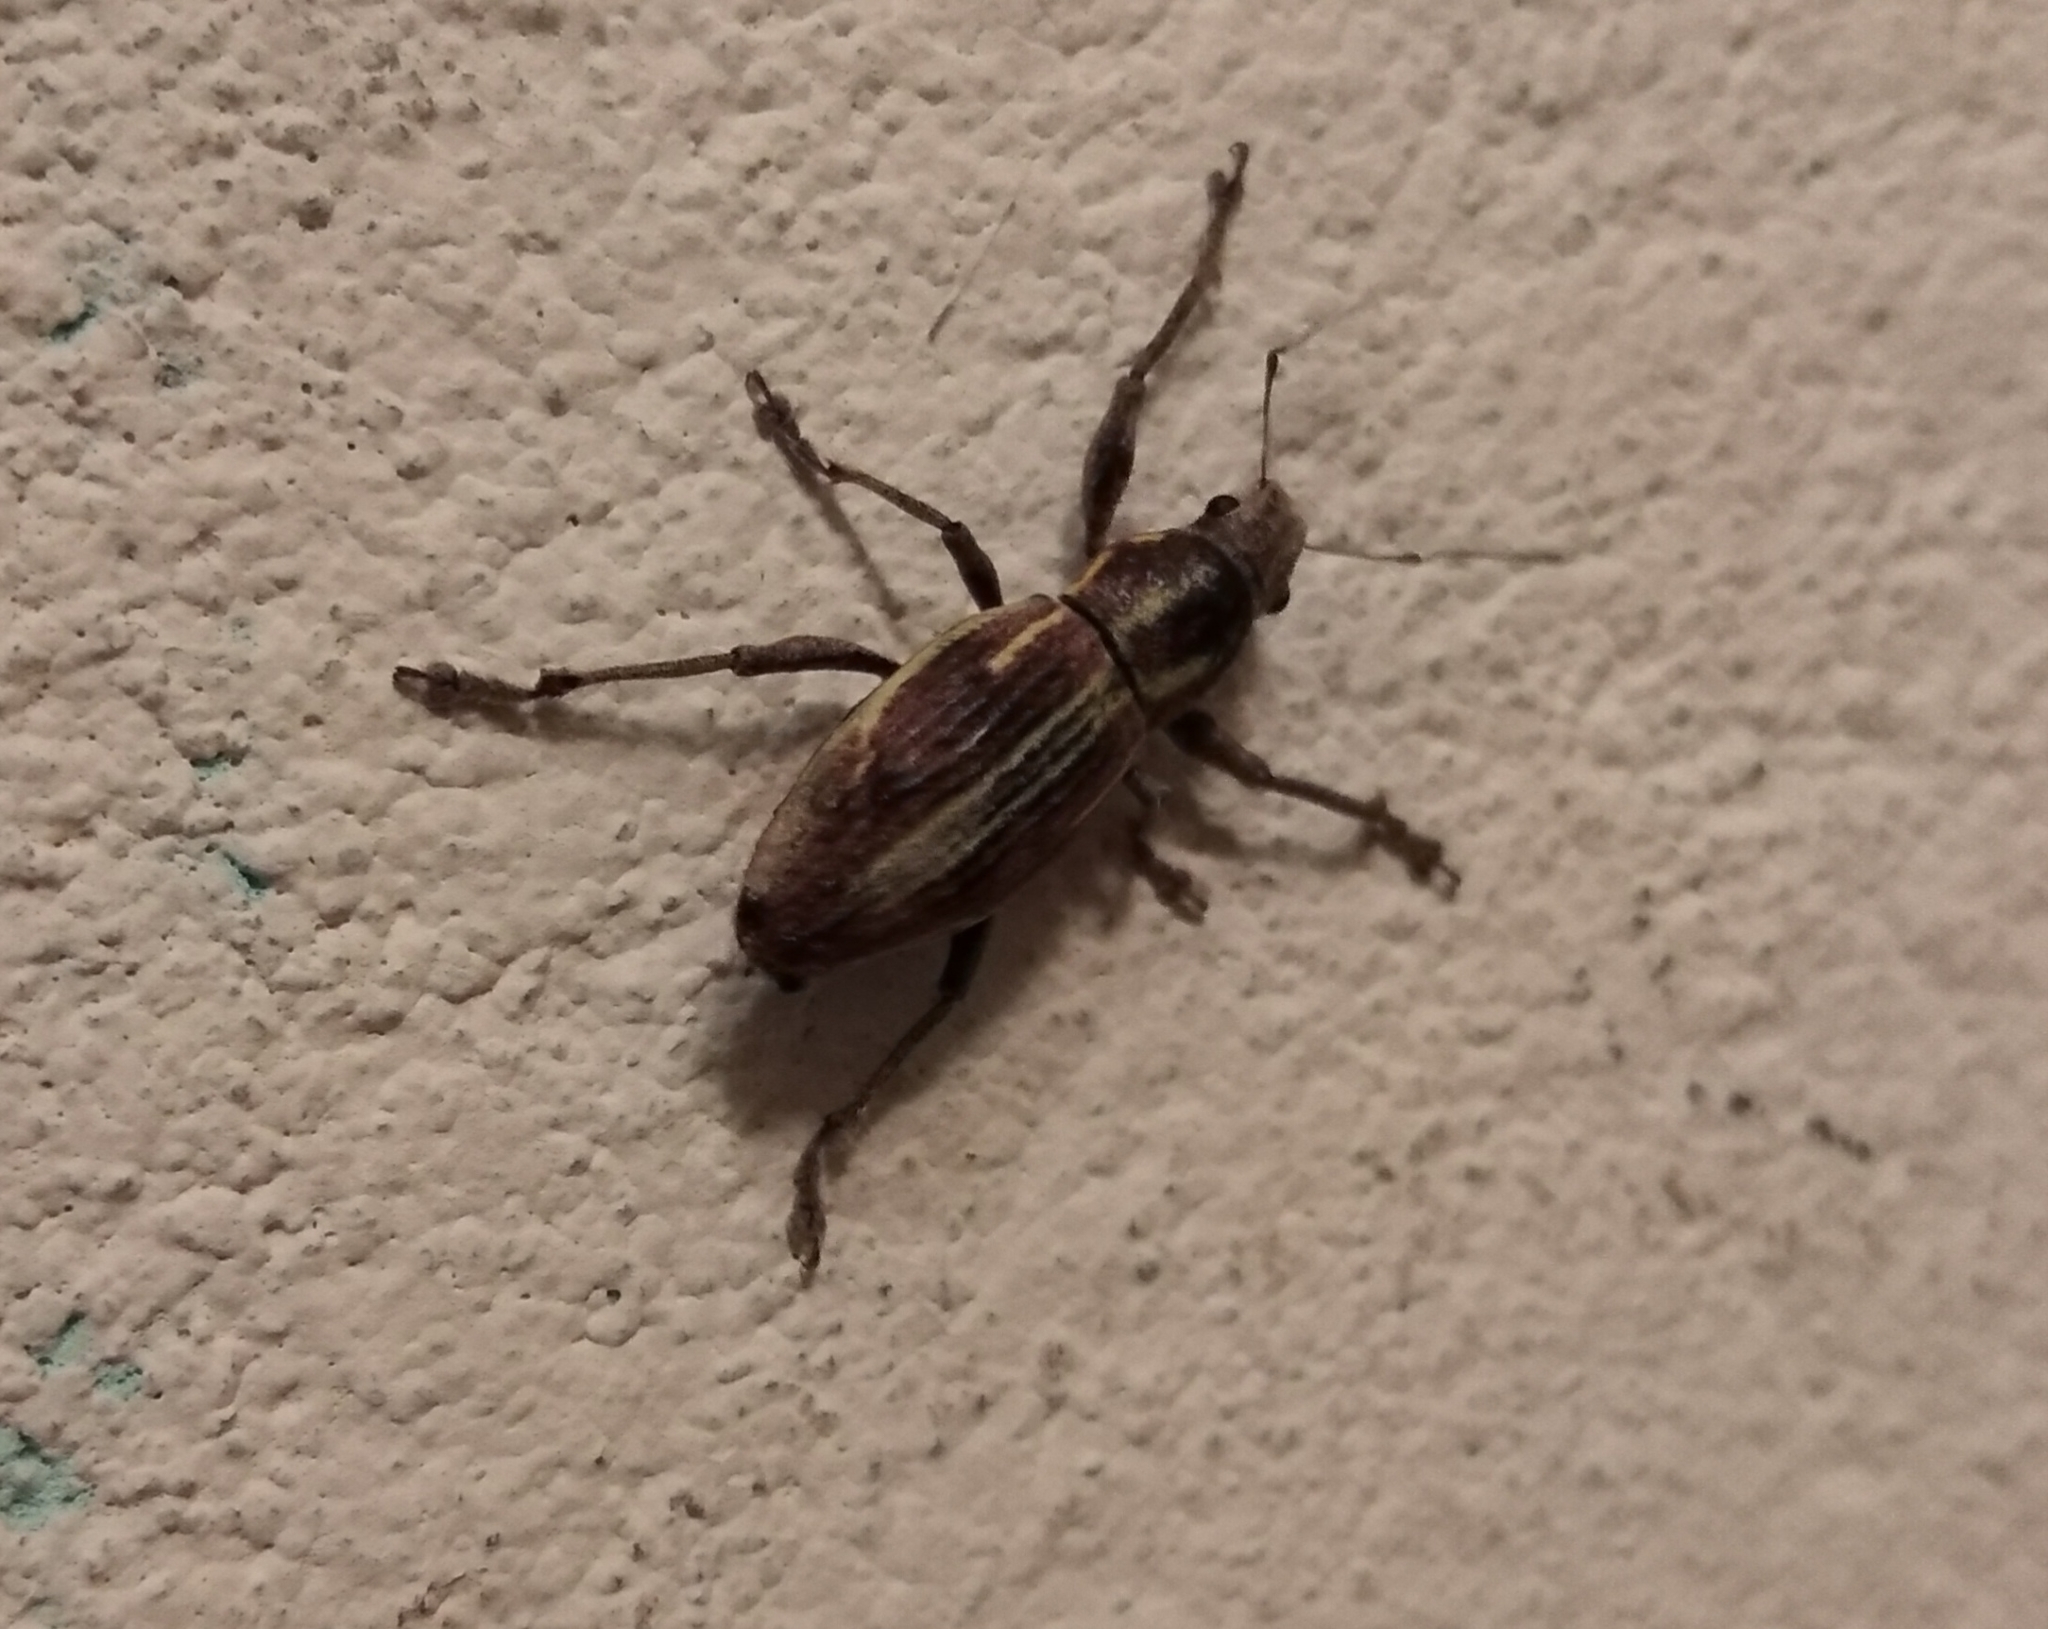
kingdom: Animalia
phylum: Arthropoda
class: Insecta
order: Coleoptera
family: Curculionidae
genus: Naupactus
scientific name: Naupactus xanthographus
